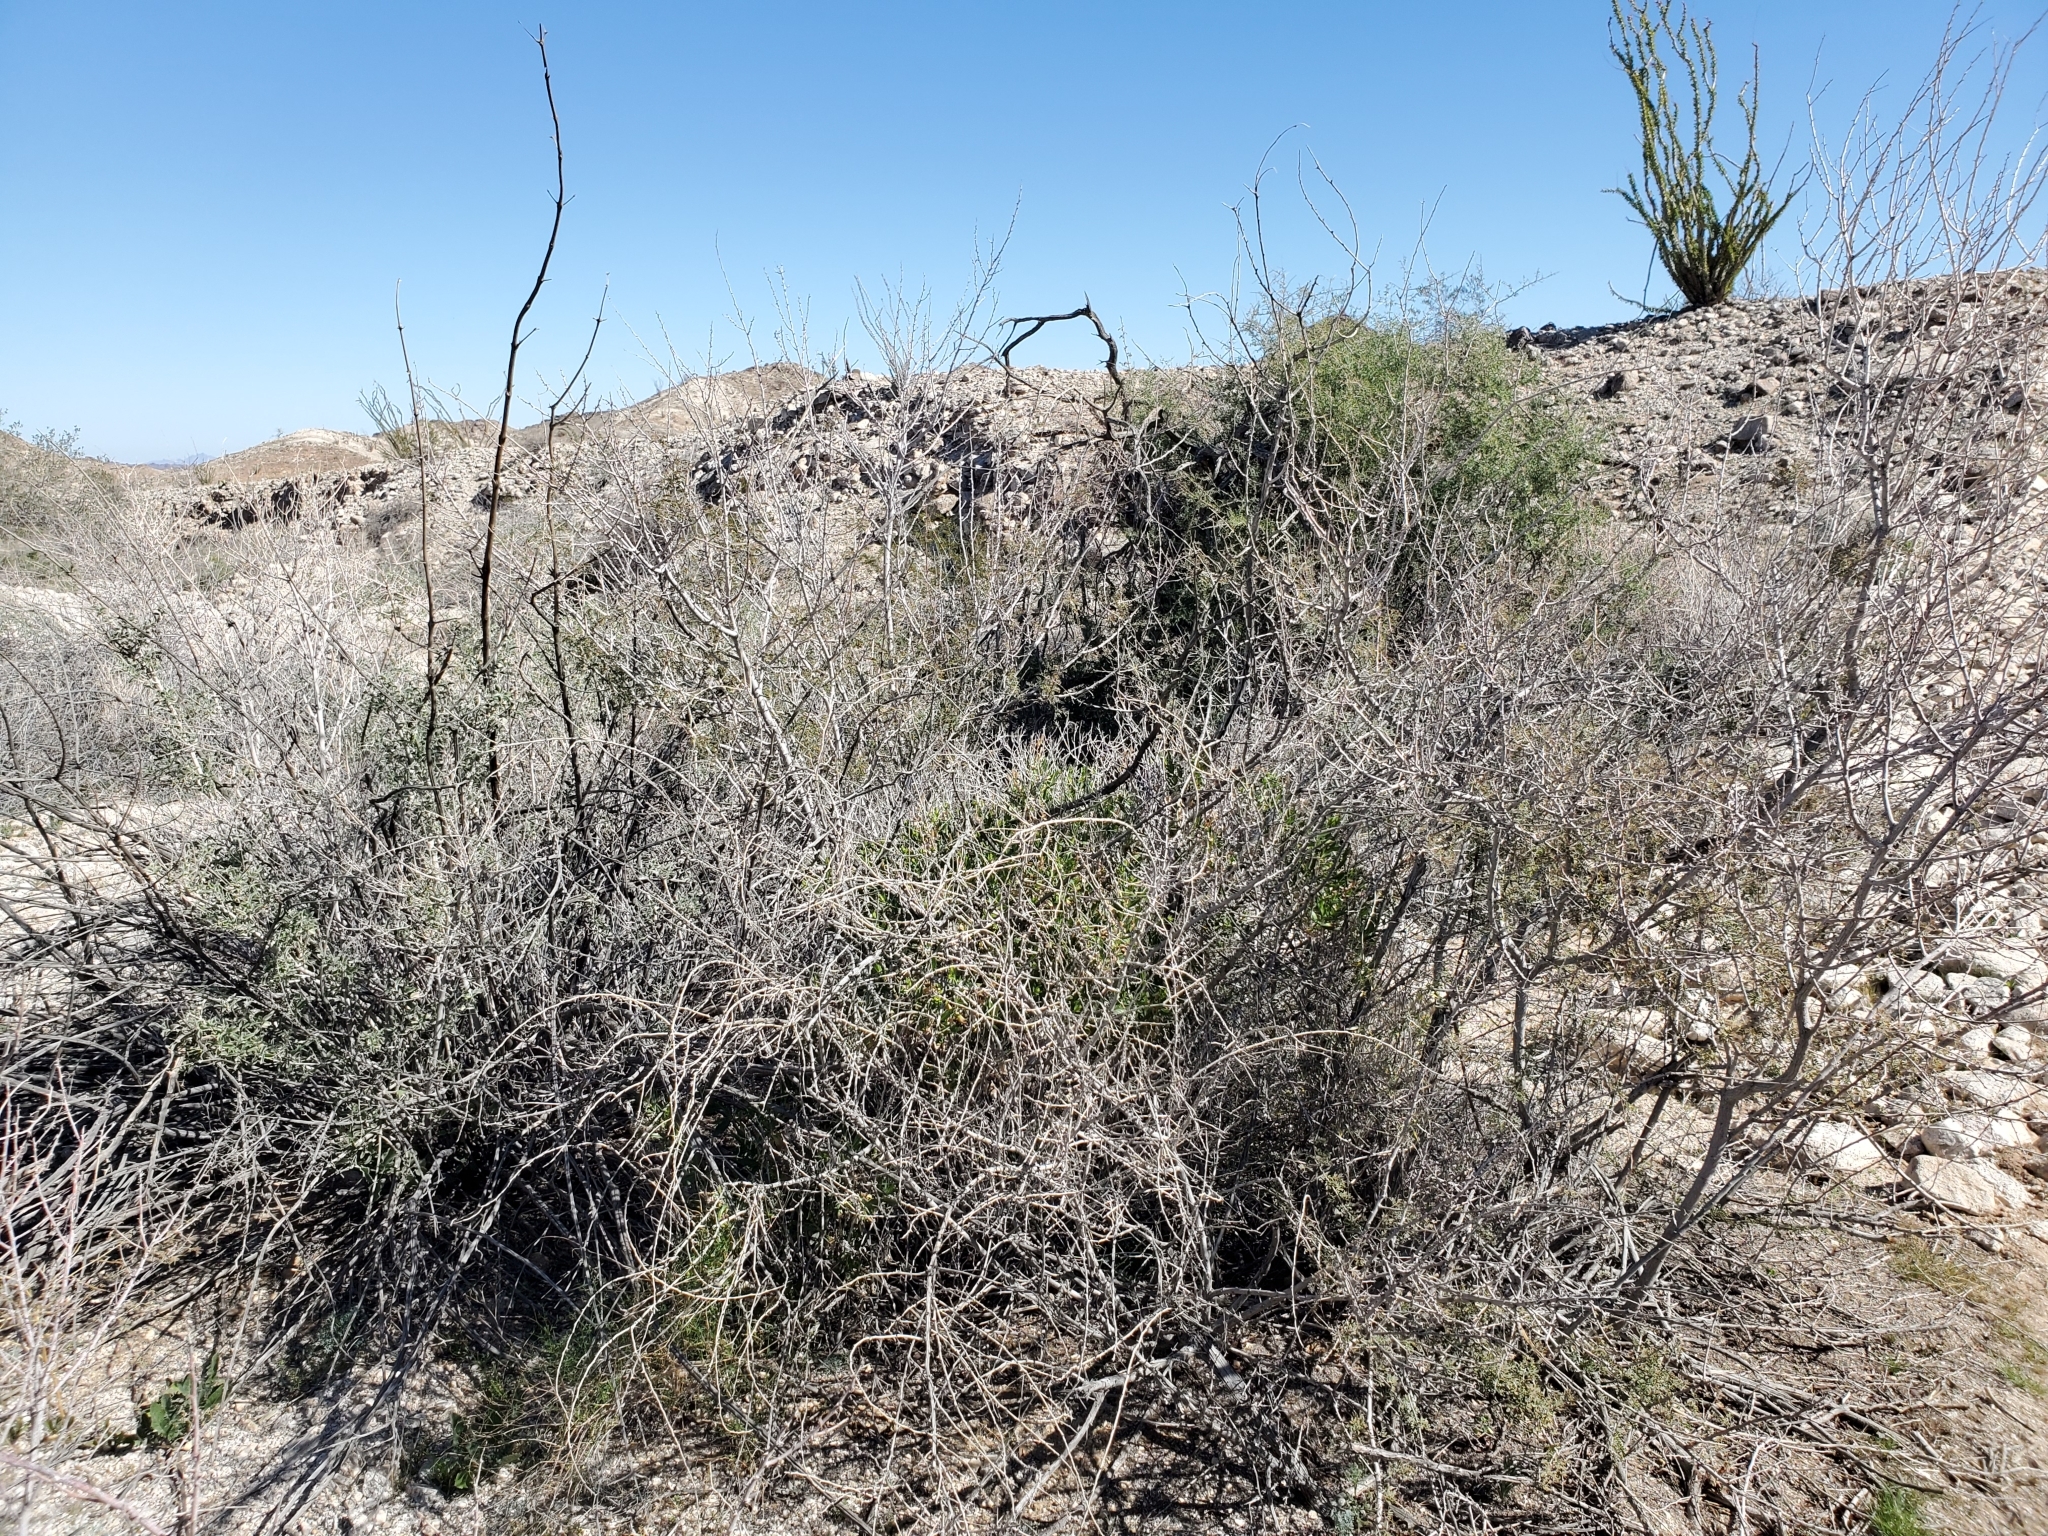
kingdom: Plantae
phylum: Tracheophyta
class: Magnoliopsida
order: Fabales
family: Fabaceae
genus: Senegalia
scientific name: Senegalia greggii
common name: Texas-mimosa
